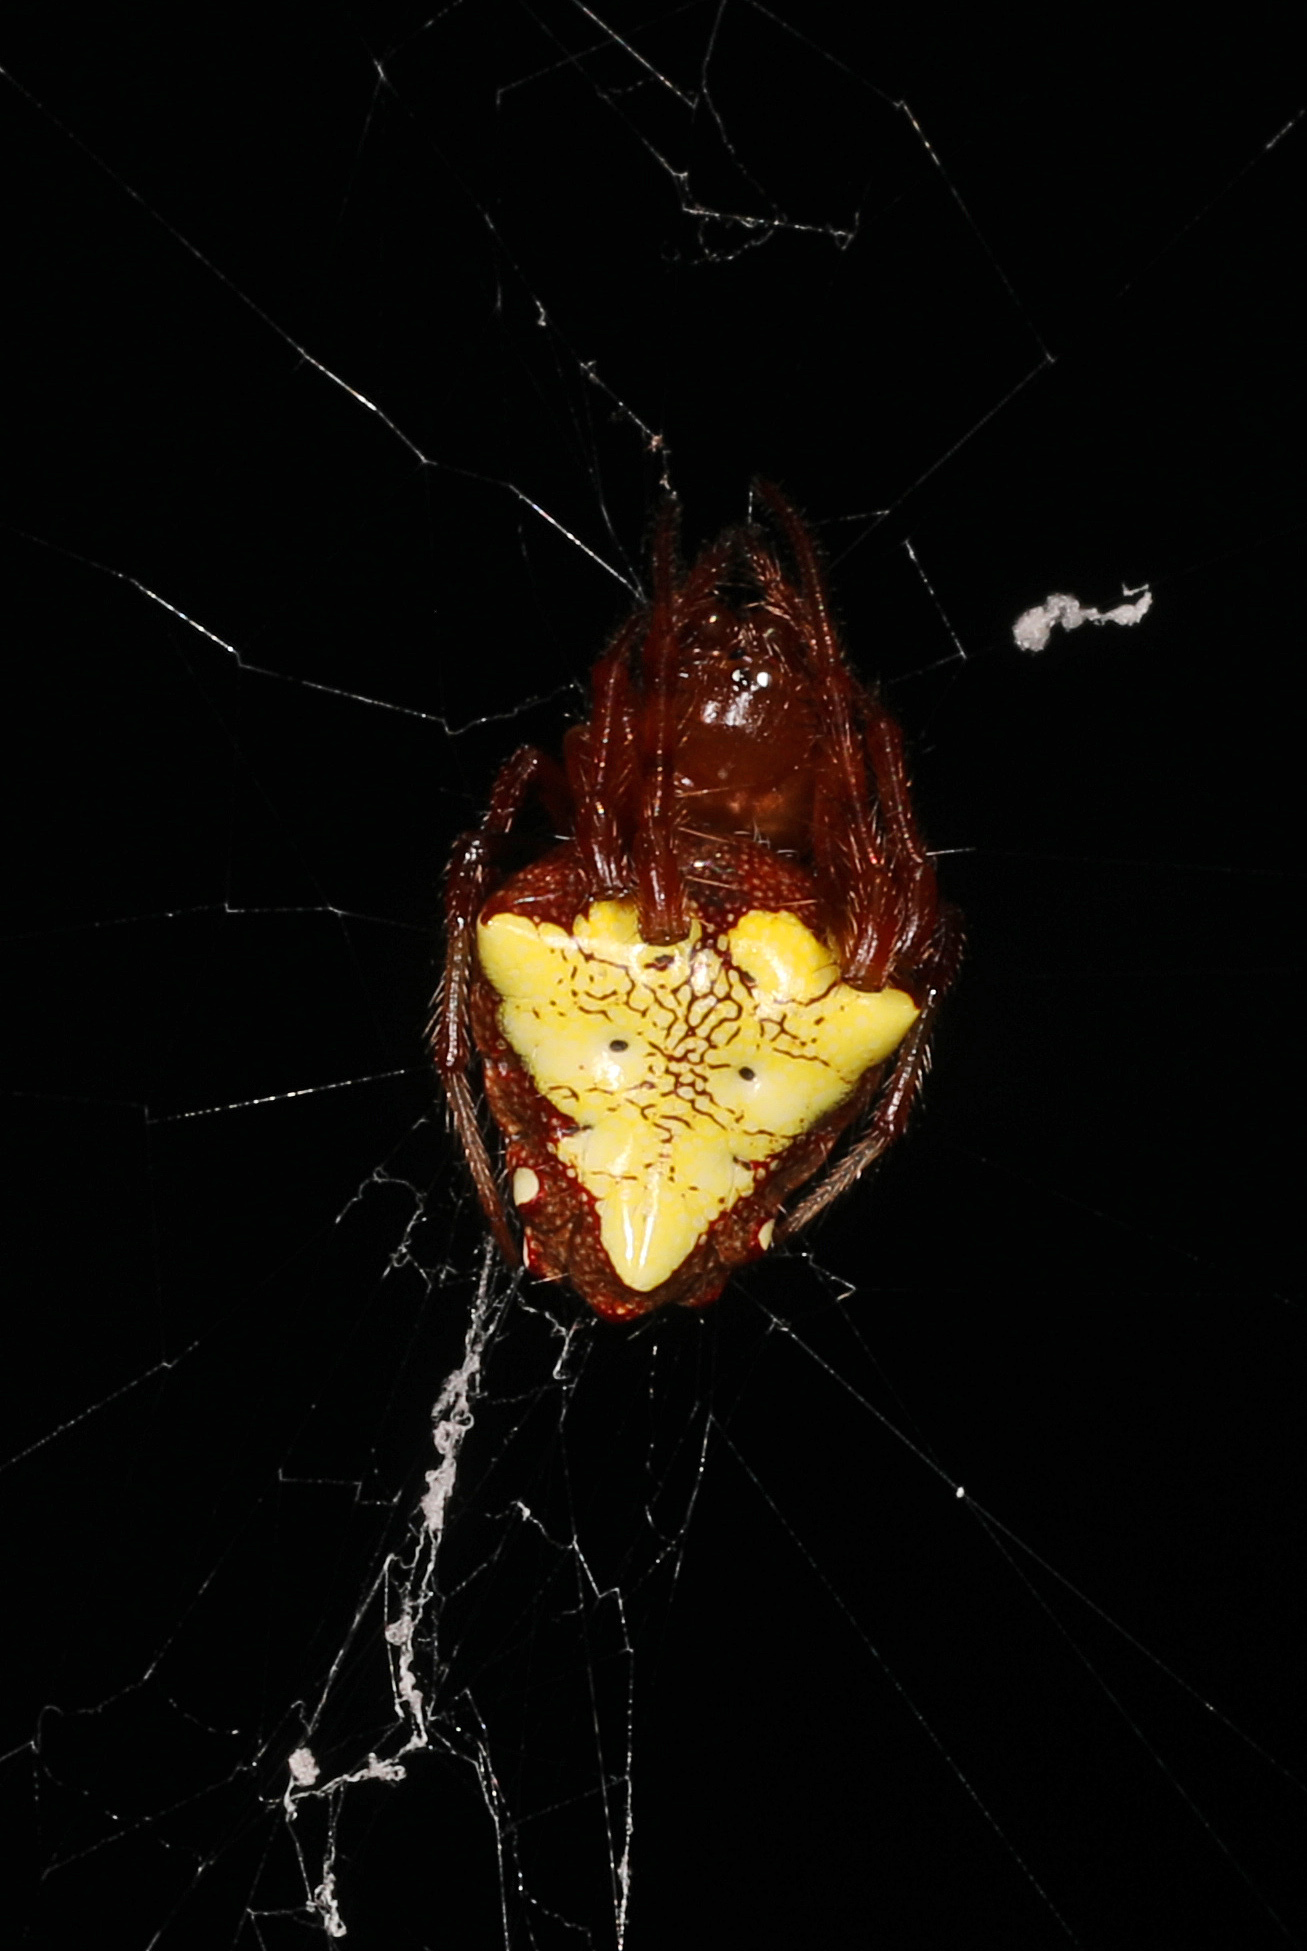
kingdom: Animalia
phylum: Arthropoda
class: Arachnida
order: Araneae
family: Araneidae
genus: Verrucosa
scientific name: Verrucosa arenata
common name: Orb weavers
